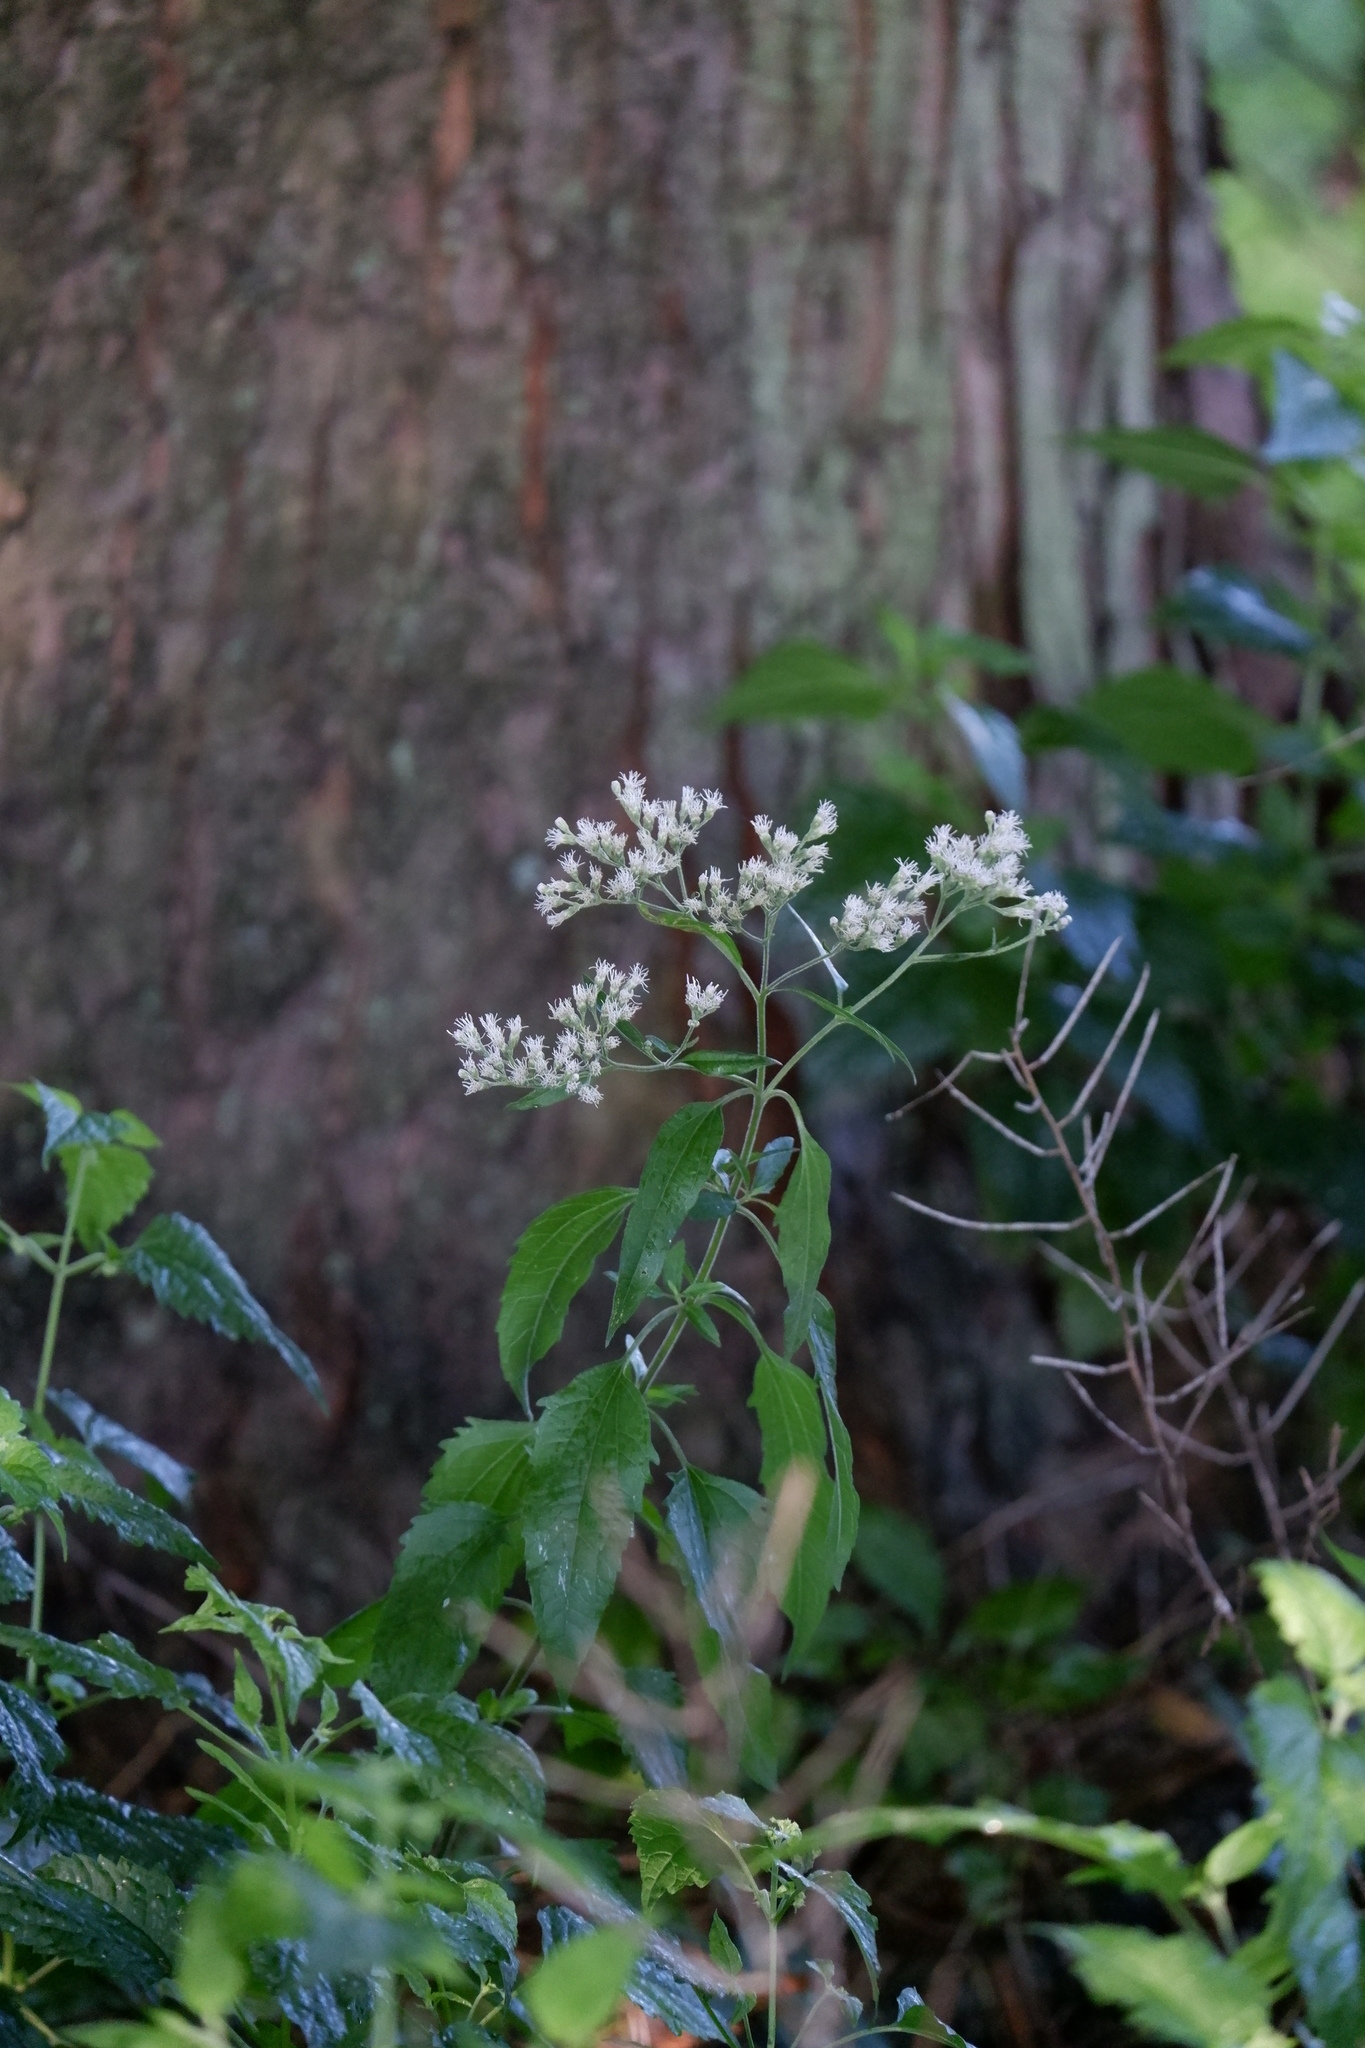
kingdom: Plantae
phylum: Tracheophyta
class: Magnoliopsida
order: Asterales
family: Asteraceae
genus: Eupatorium
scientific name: Eupatorium serotinum
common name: Late boneset
